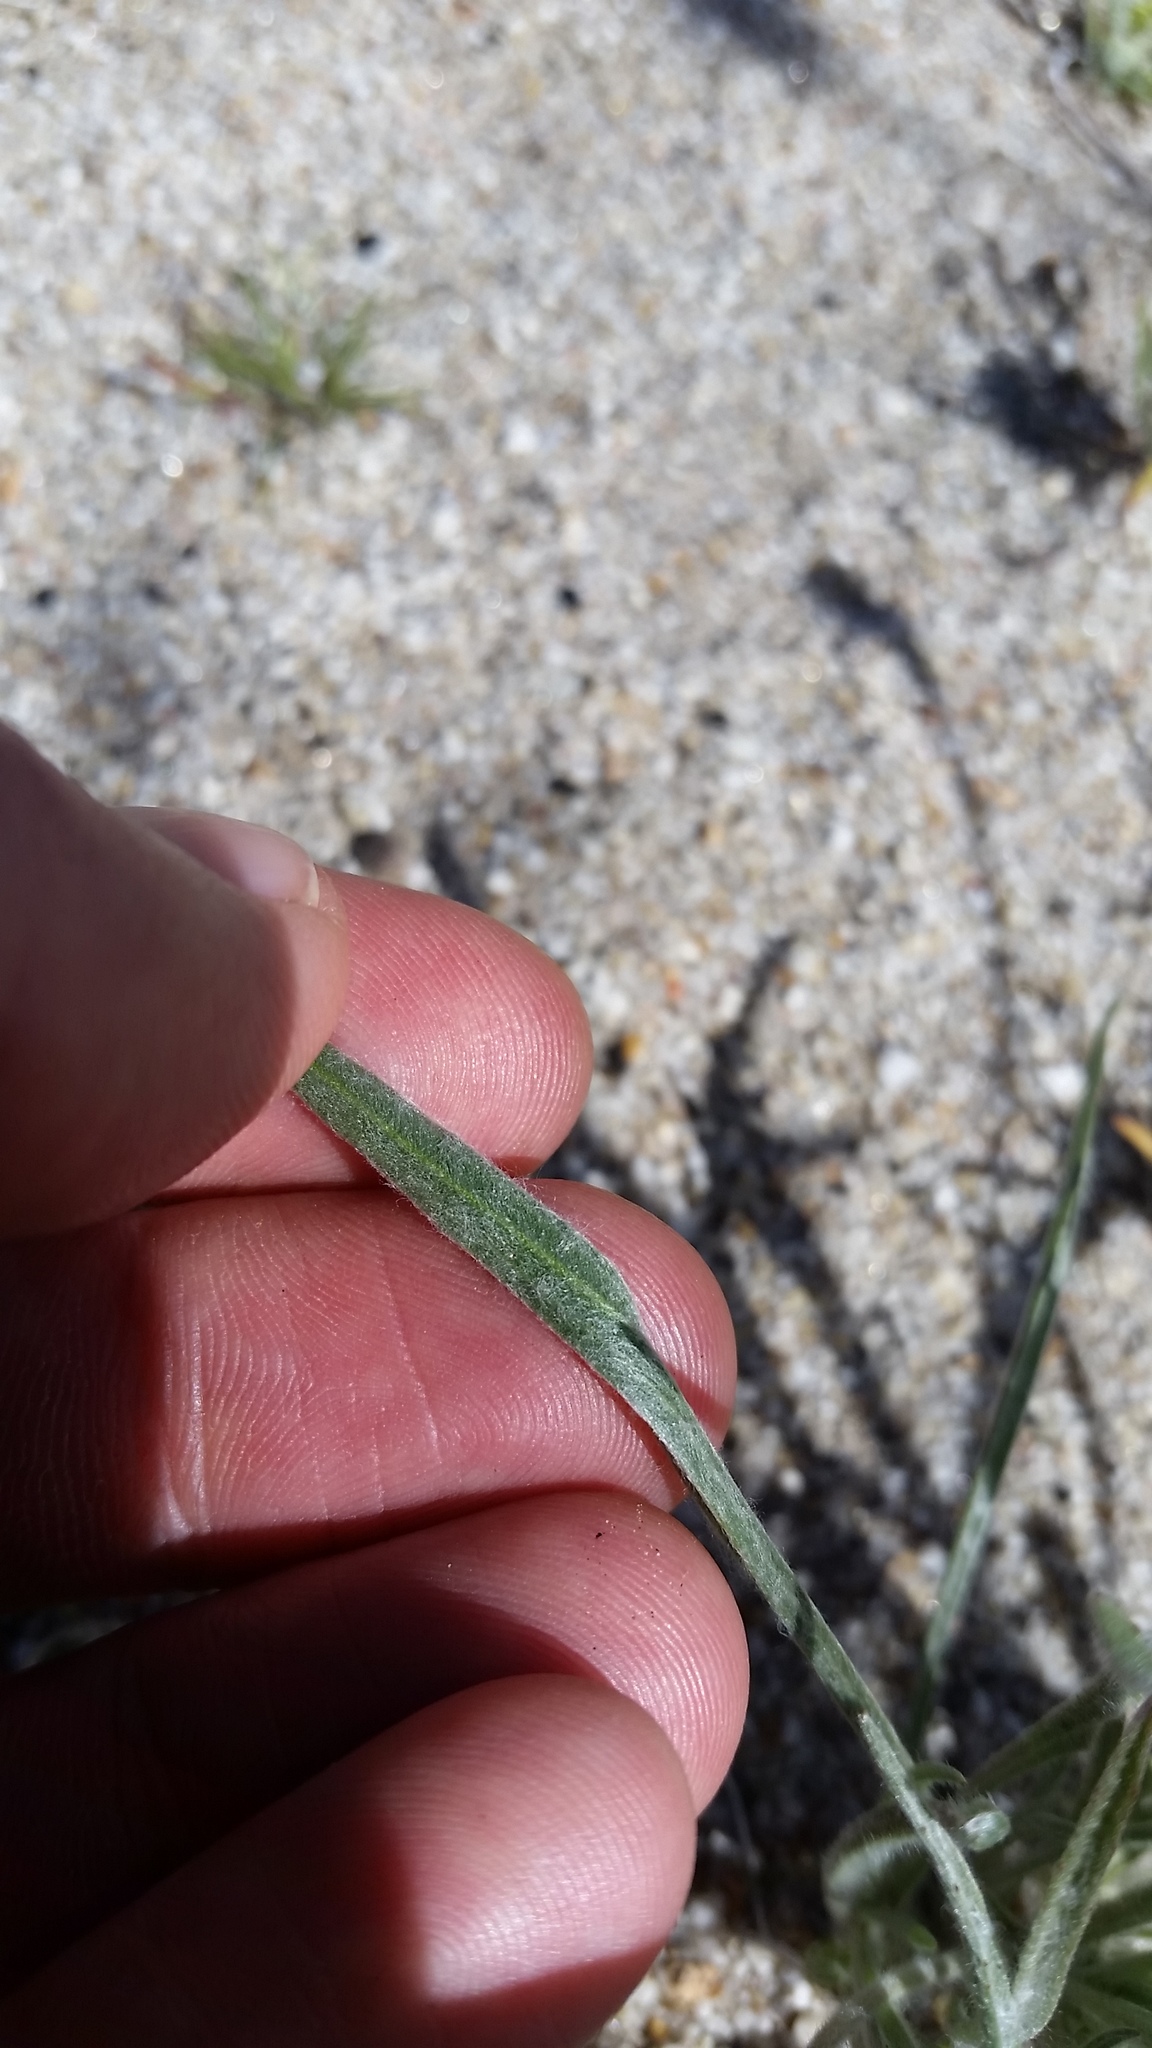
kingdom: Plantae
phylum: Tracheophyta
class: Magnoliopsida
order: Lamiales
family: Plantaginaceae
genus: Plantago
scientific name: Plantago ovata
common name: Blond plantain
